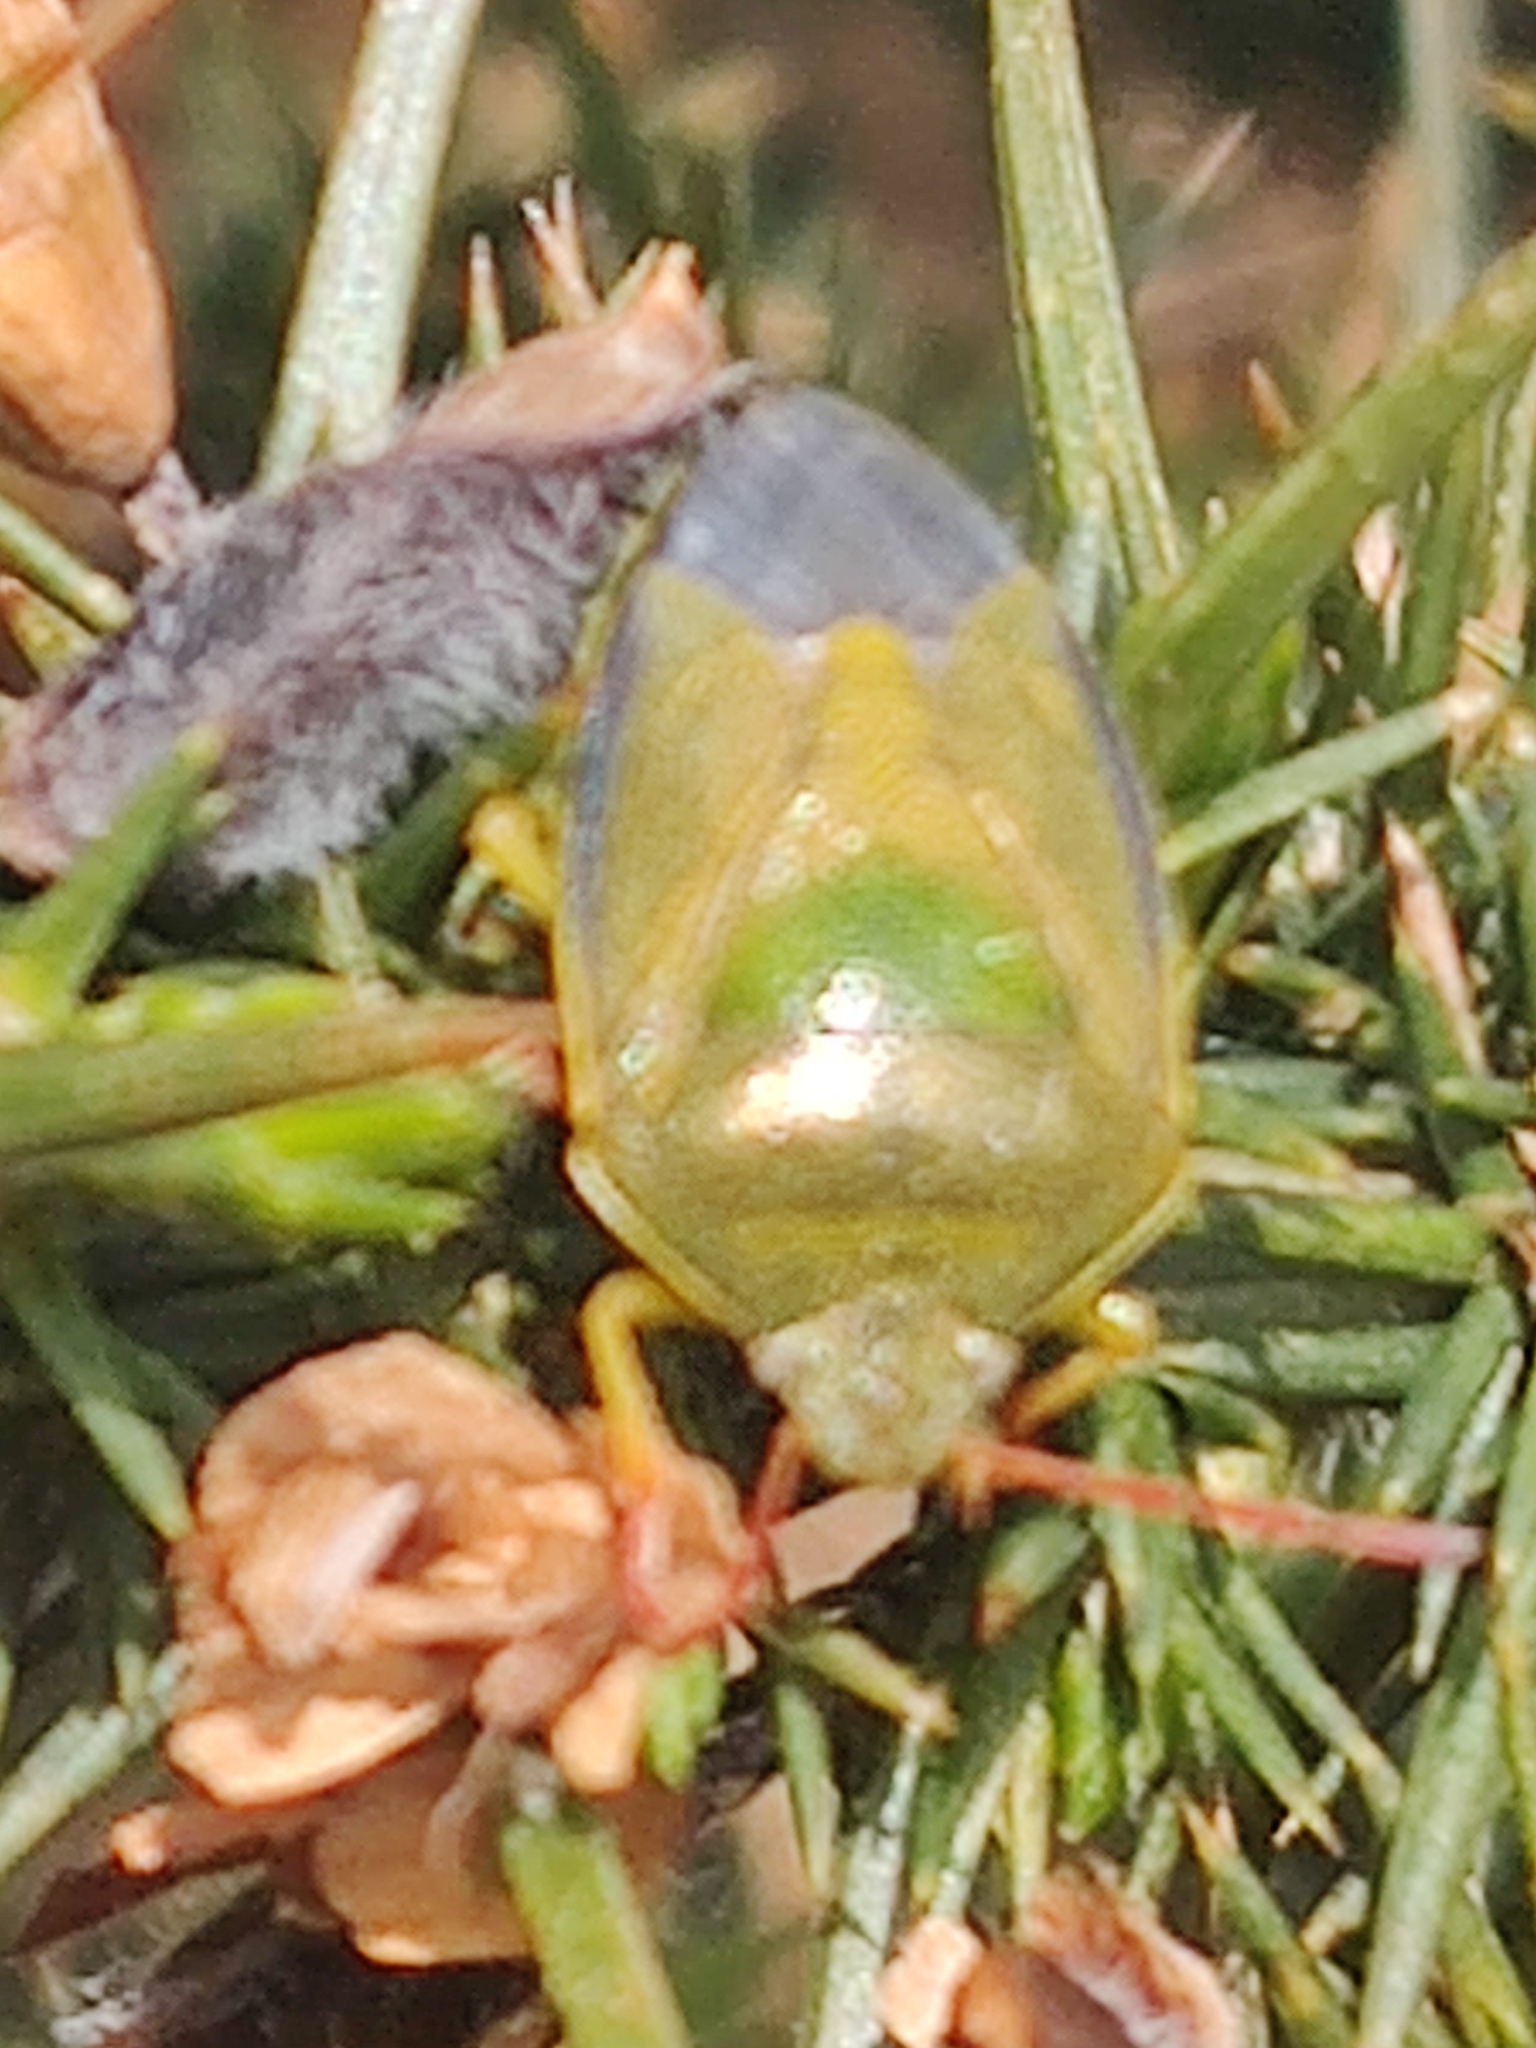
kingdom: Animalia
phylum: Arthropoda
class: Insecta
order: Hemiptera
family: Pentatomidae
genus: Piezodorus
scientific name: Piezodorus lituratus
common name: Stink bug
